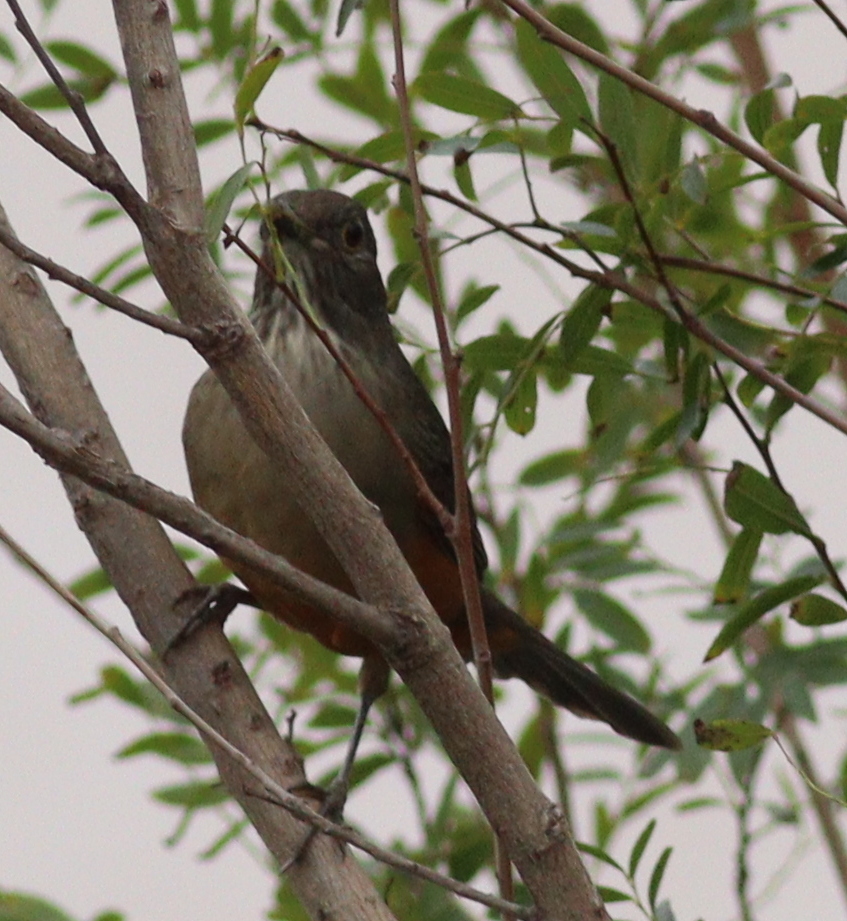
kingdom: Animalia
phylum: Chordata
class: Aves
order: Passeriformes
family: Turdidae
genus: Turdus
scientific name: Turdus rufiventris
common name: Rufous-bellied thrush
